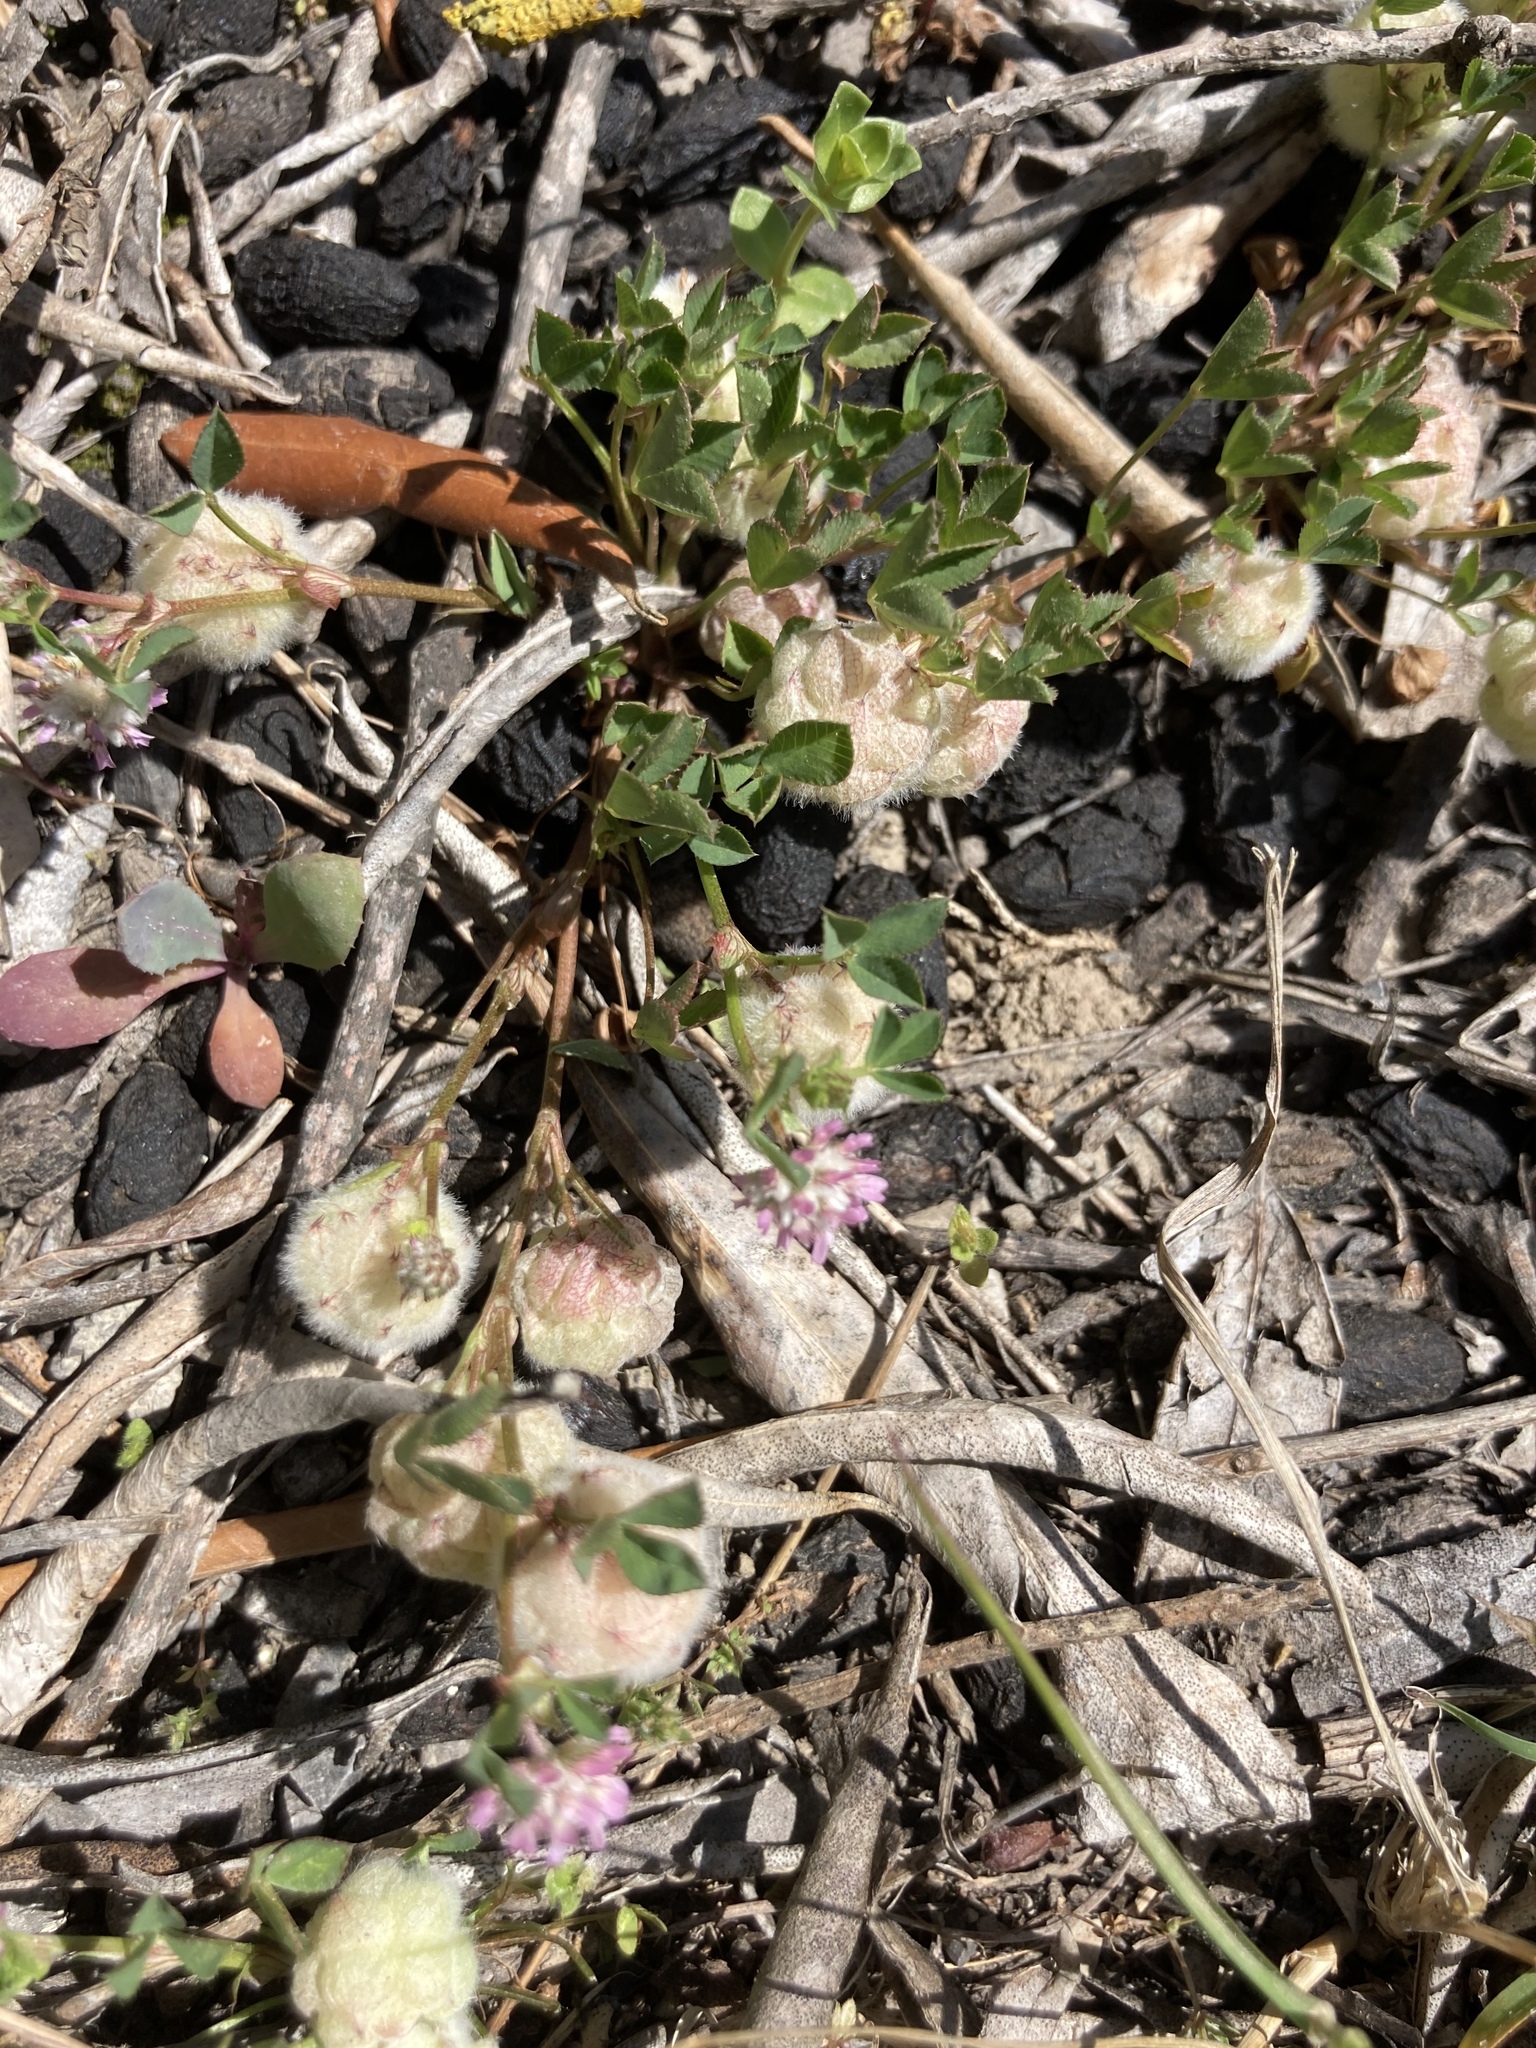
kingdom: Plantae
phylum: Tracheophyta
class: Magnoliopsida
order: Fabales
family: Fabaceae
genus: Trifolium
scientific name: Trifolium tomentosum
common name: Woolly clover
